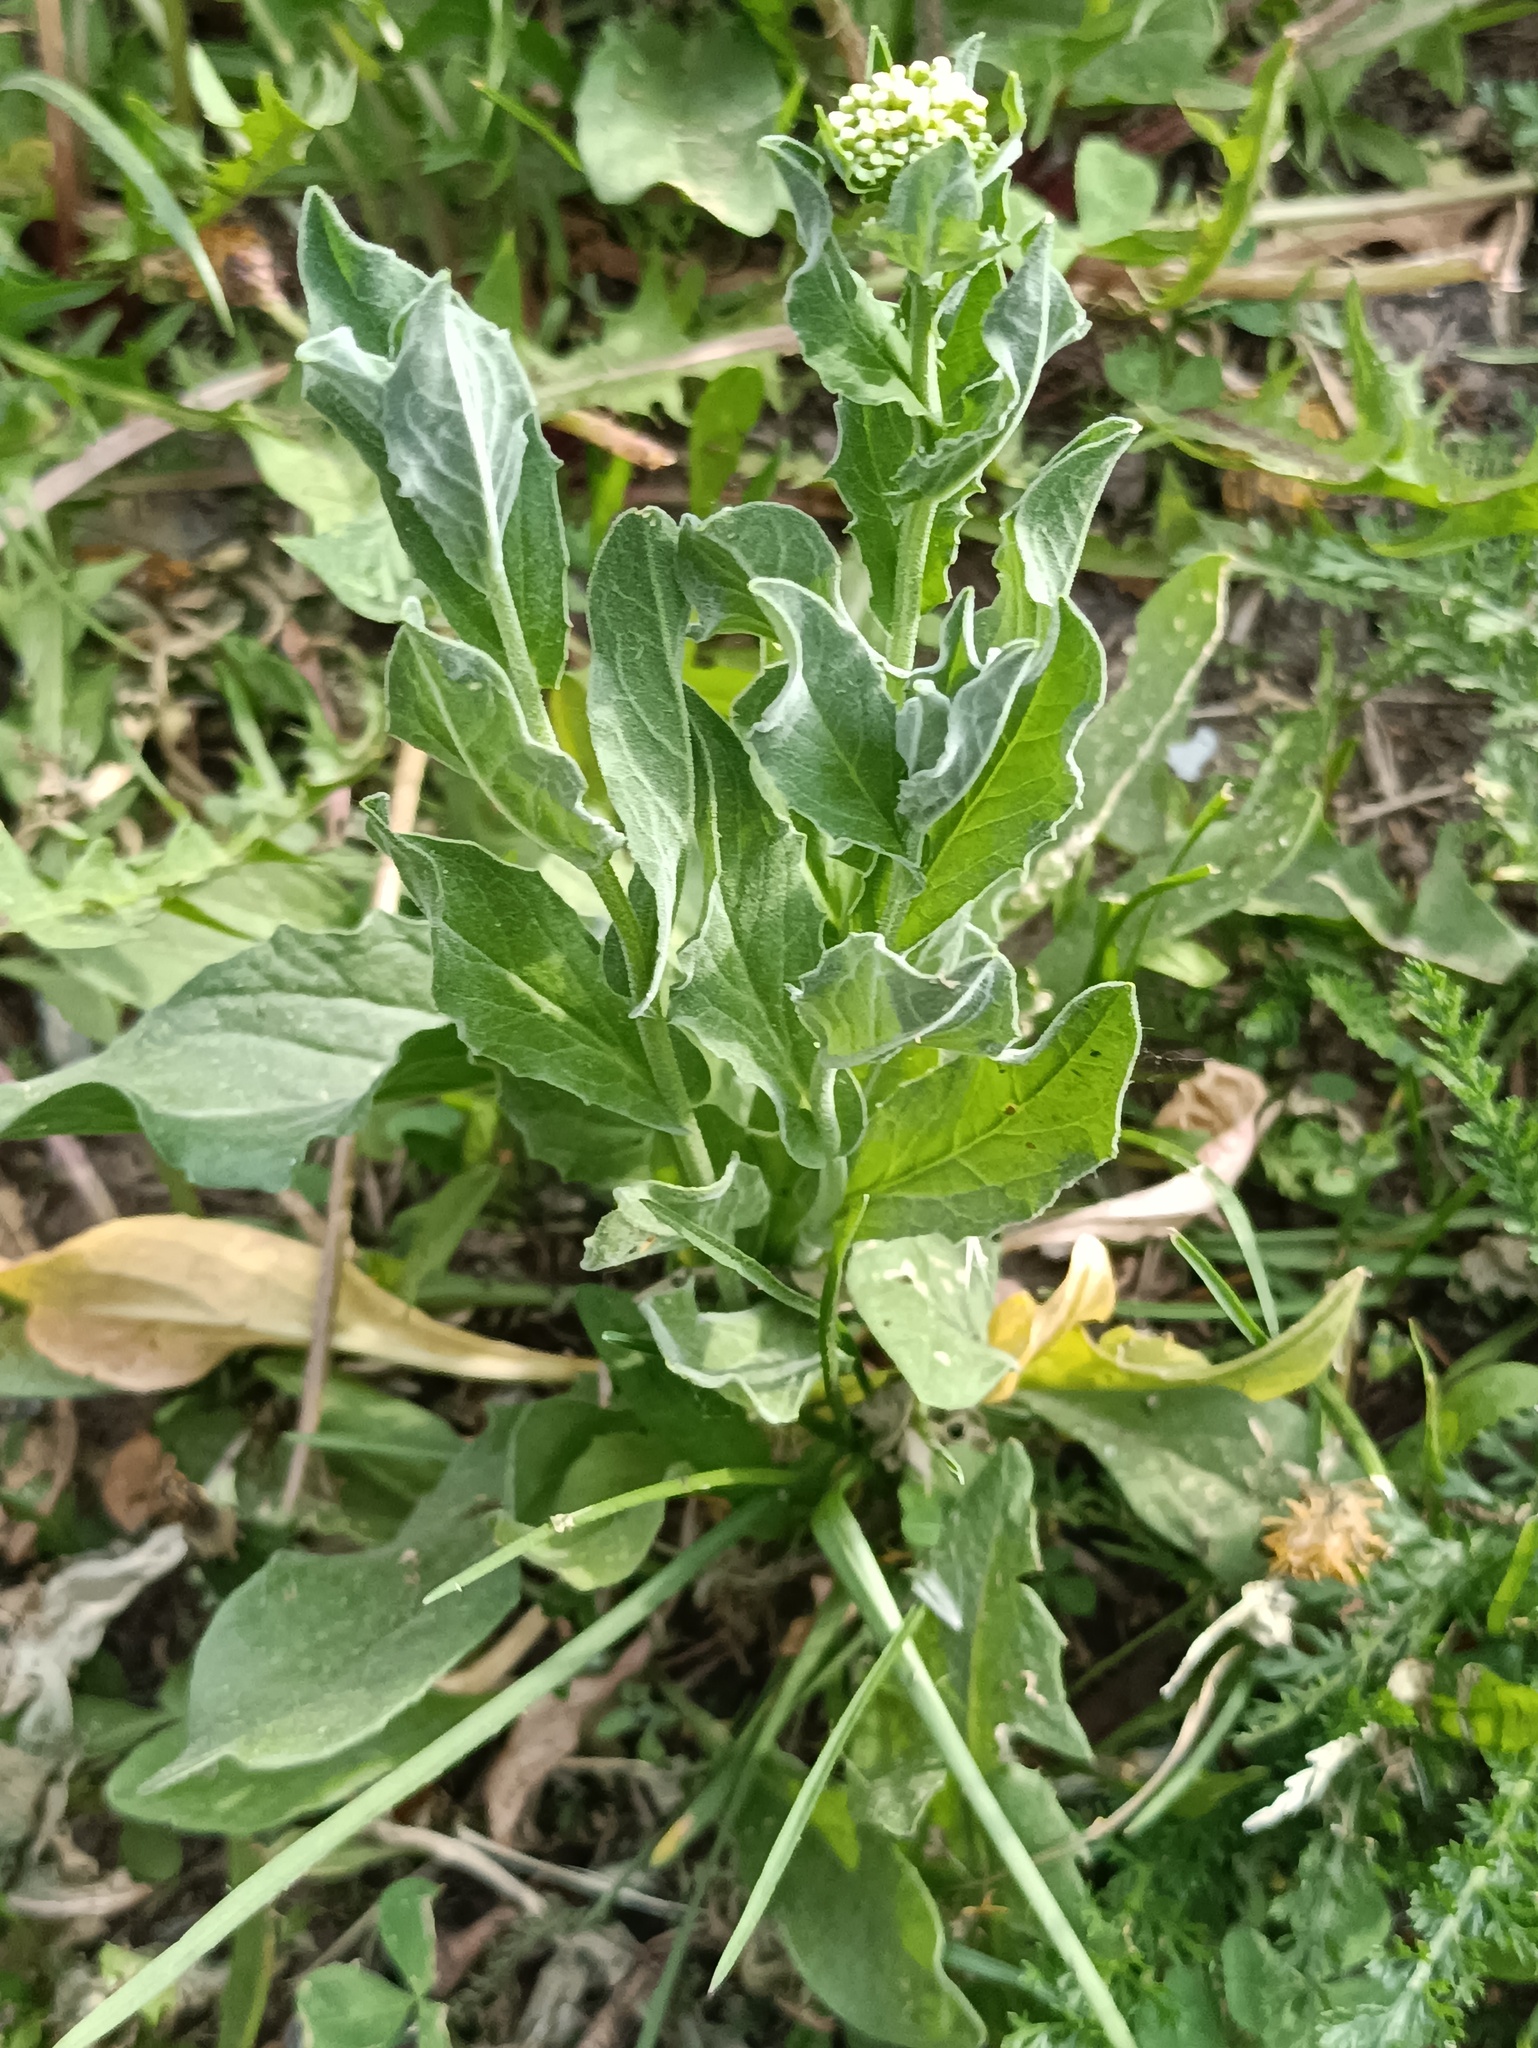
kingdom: Plantae
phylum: Tracheophyta
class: Magnoliopsida
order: Brassicales
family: Brassicaceae
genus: Lepidium
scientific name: Lepidium draba
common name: Hoary cress
